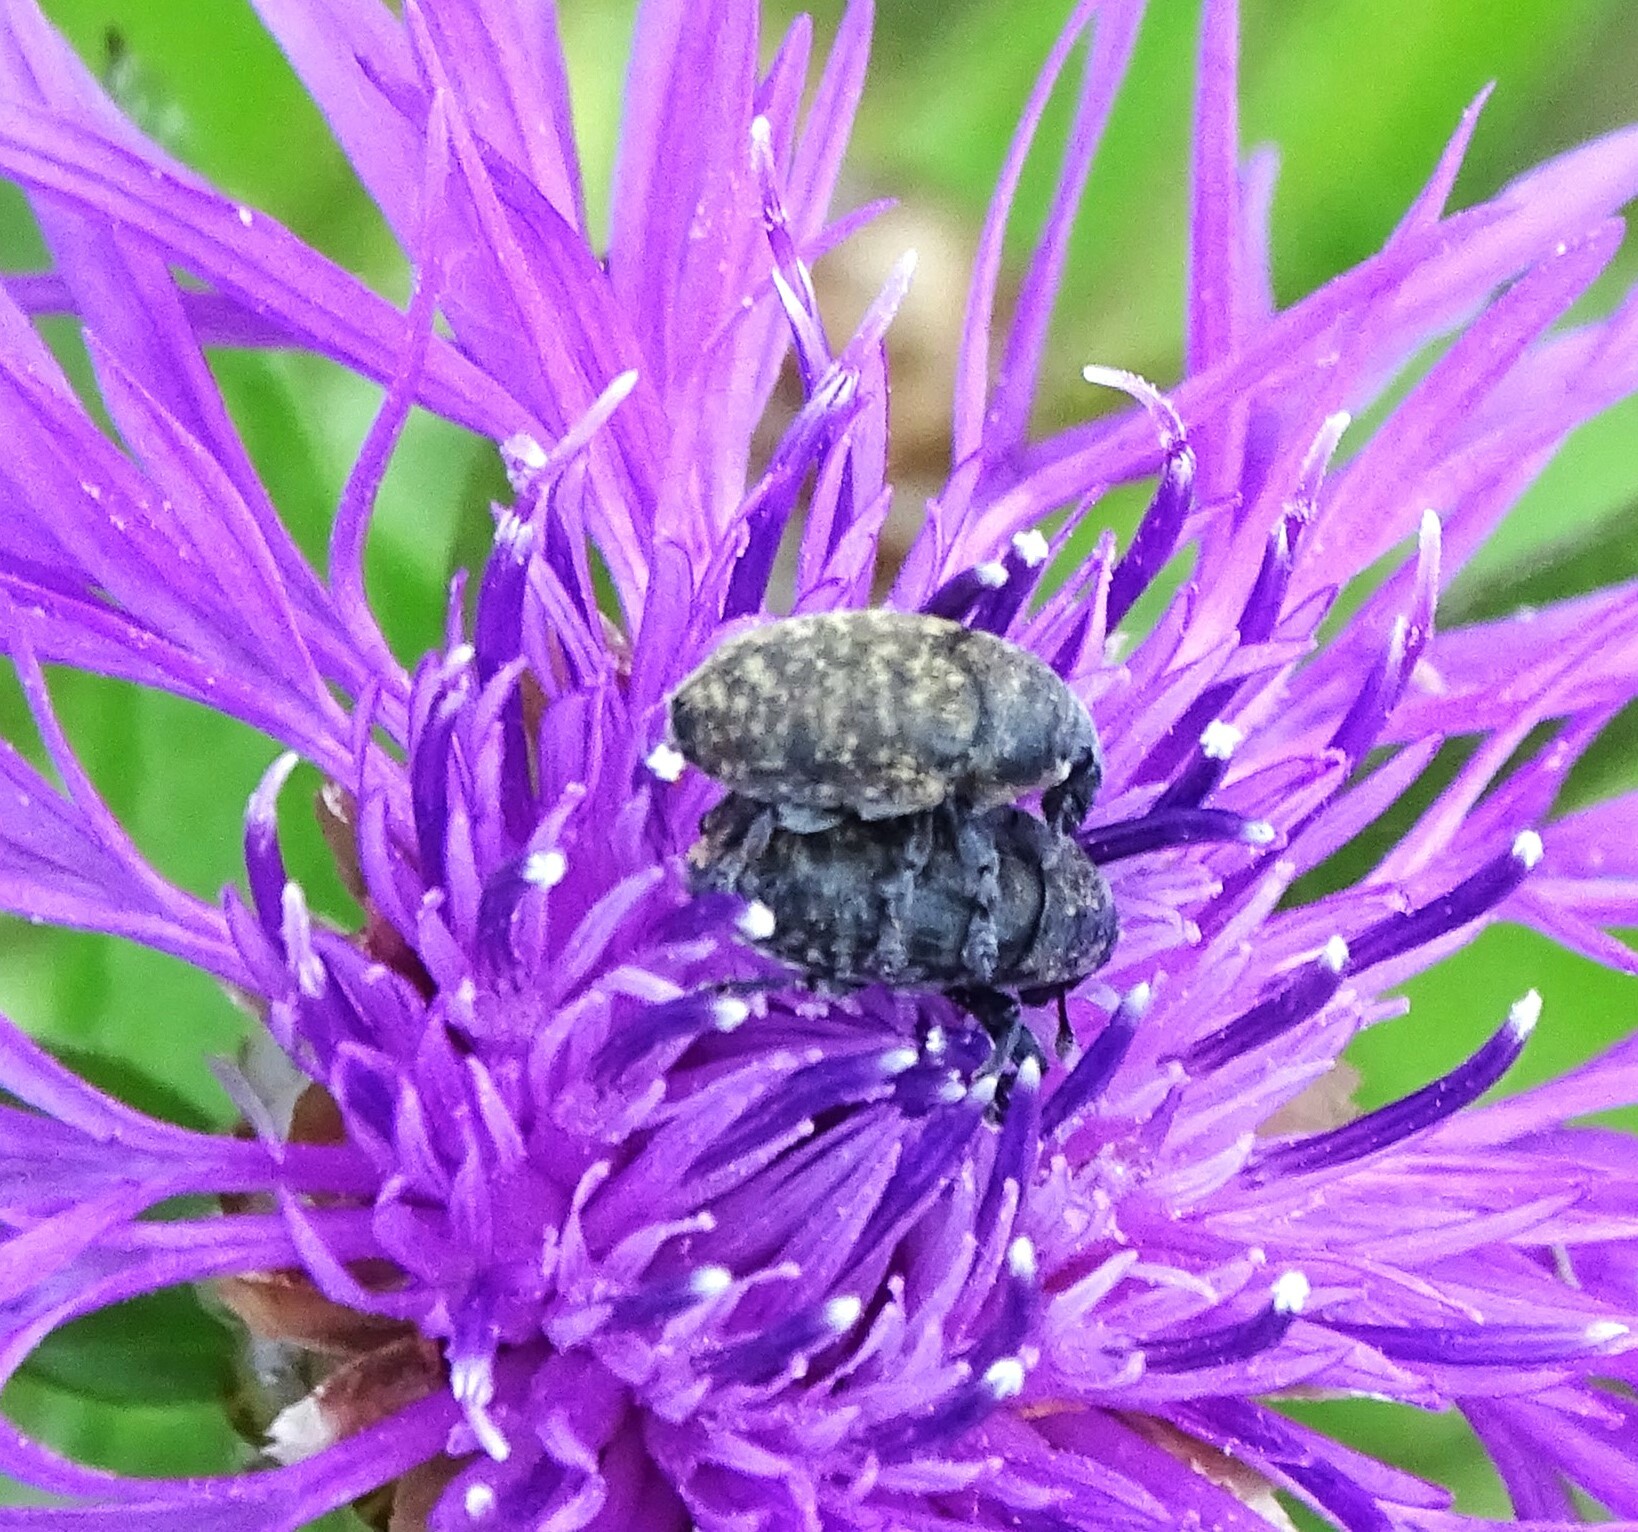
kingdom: Animalia
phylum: Arthropoda
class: Insecta
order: Coleoptera
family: Curculionidae
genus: Larinus
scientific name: Larinus obtusus
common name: Weevil
